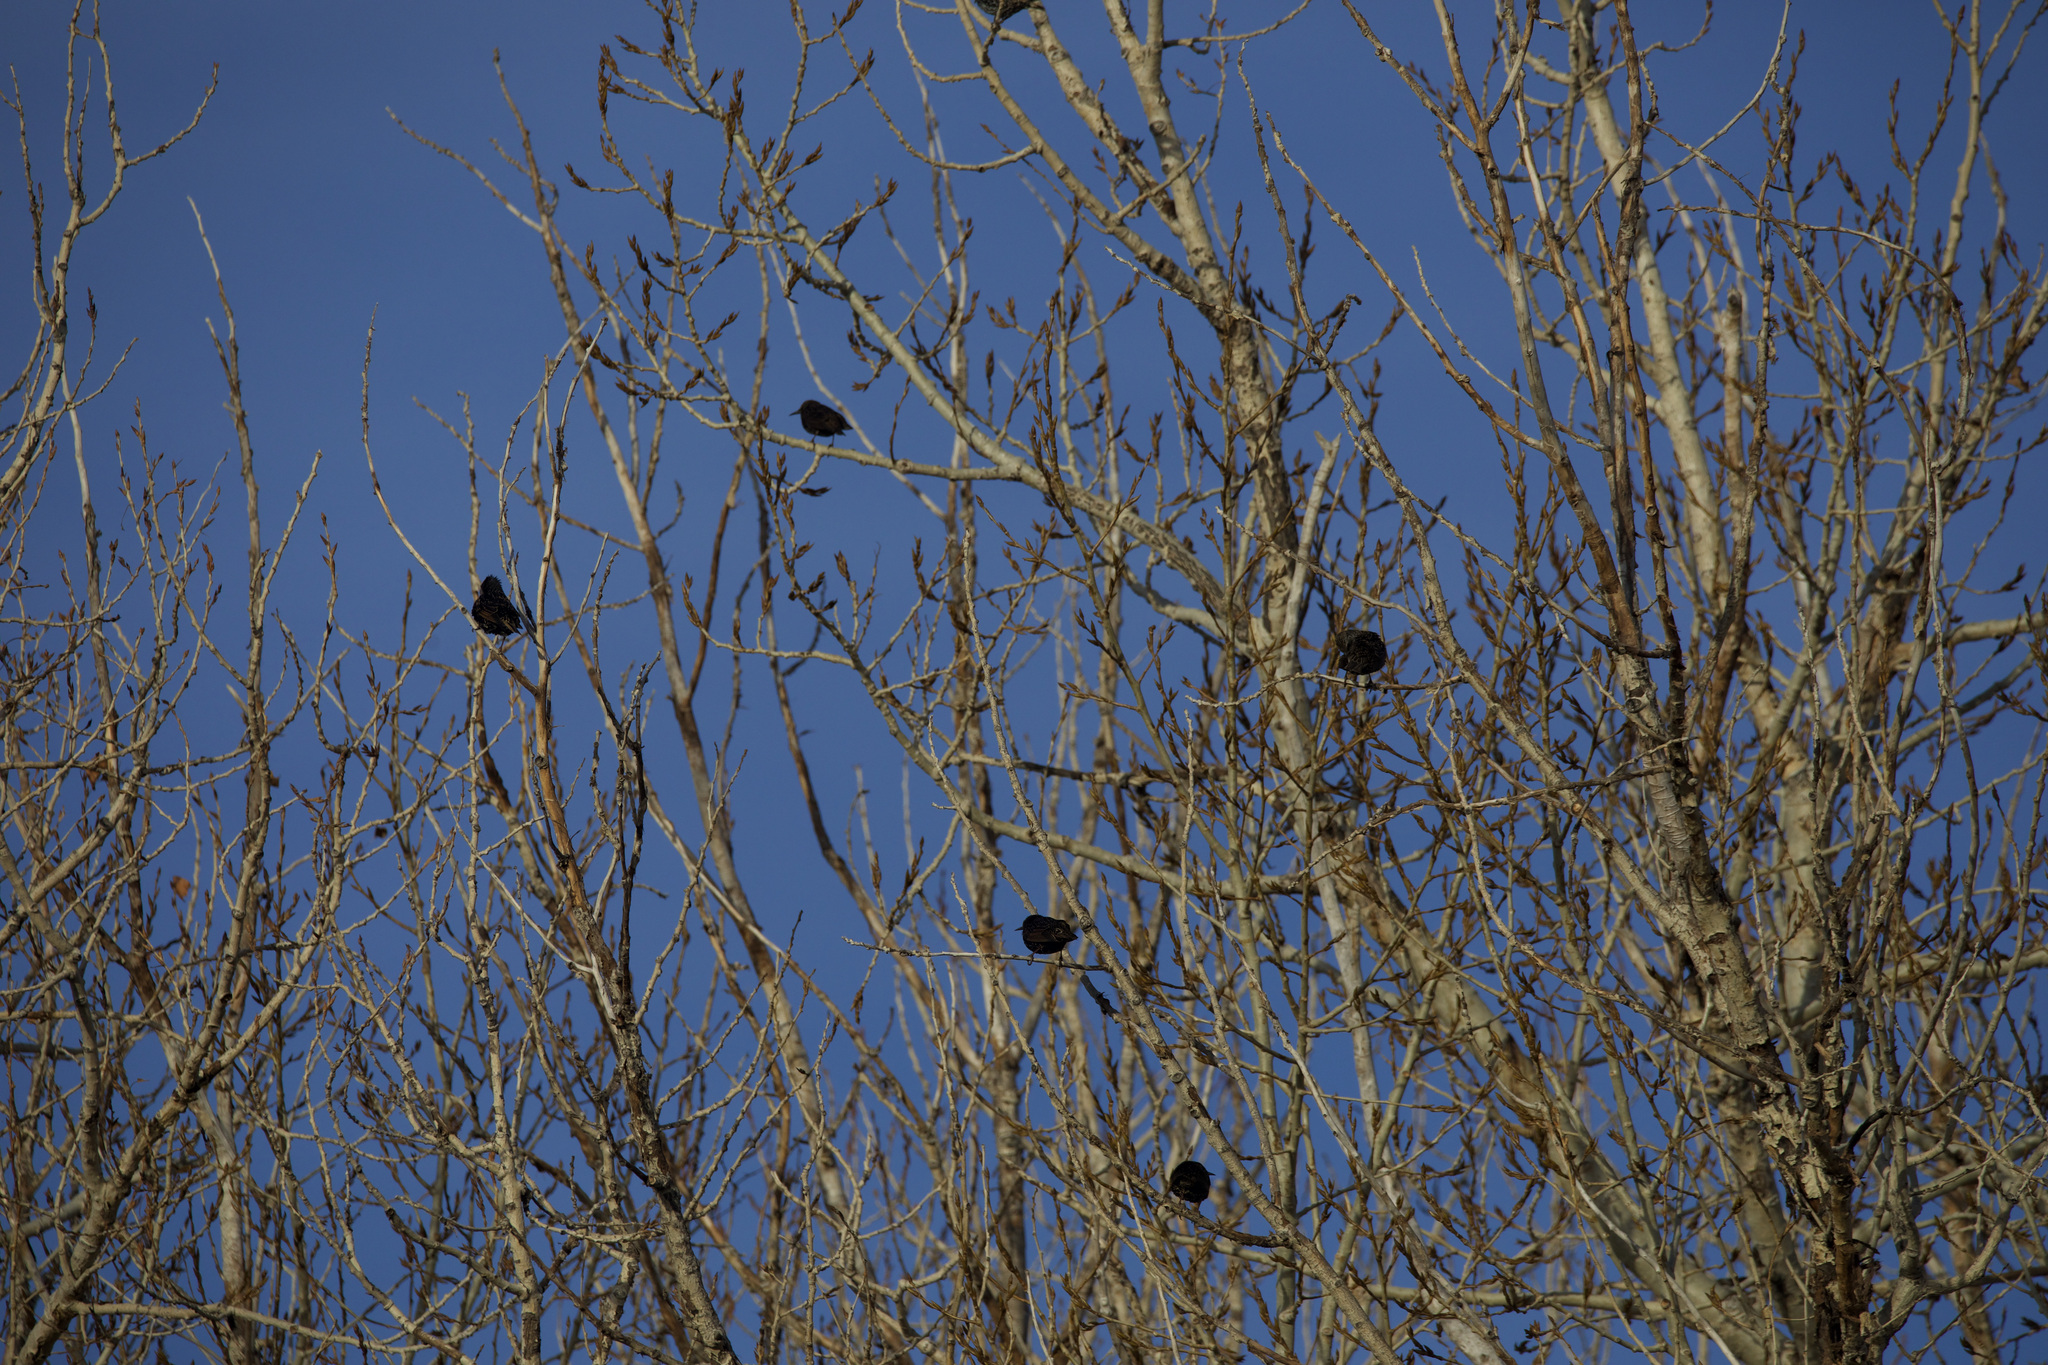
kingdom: Animalia
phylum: Chordata
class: Aves
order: Passeriformes
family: Sturnidae
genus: Sturnus
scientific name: Sturnus vulgaris
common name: Common starling
